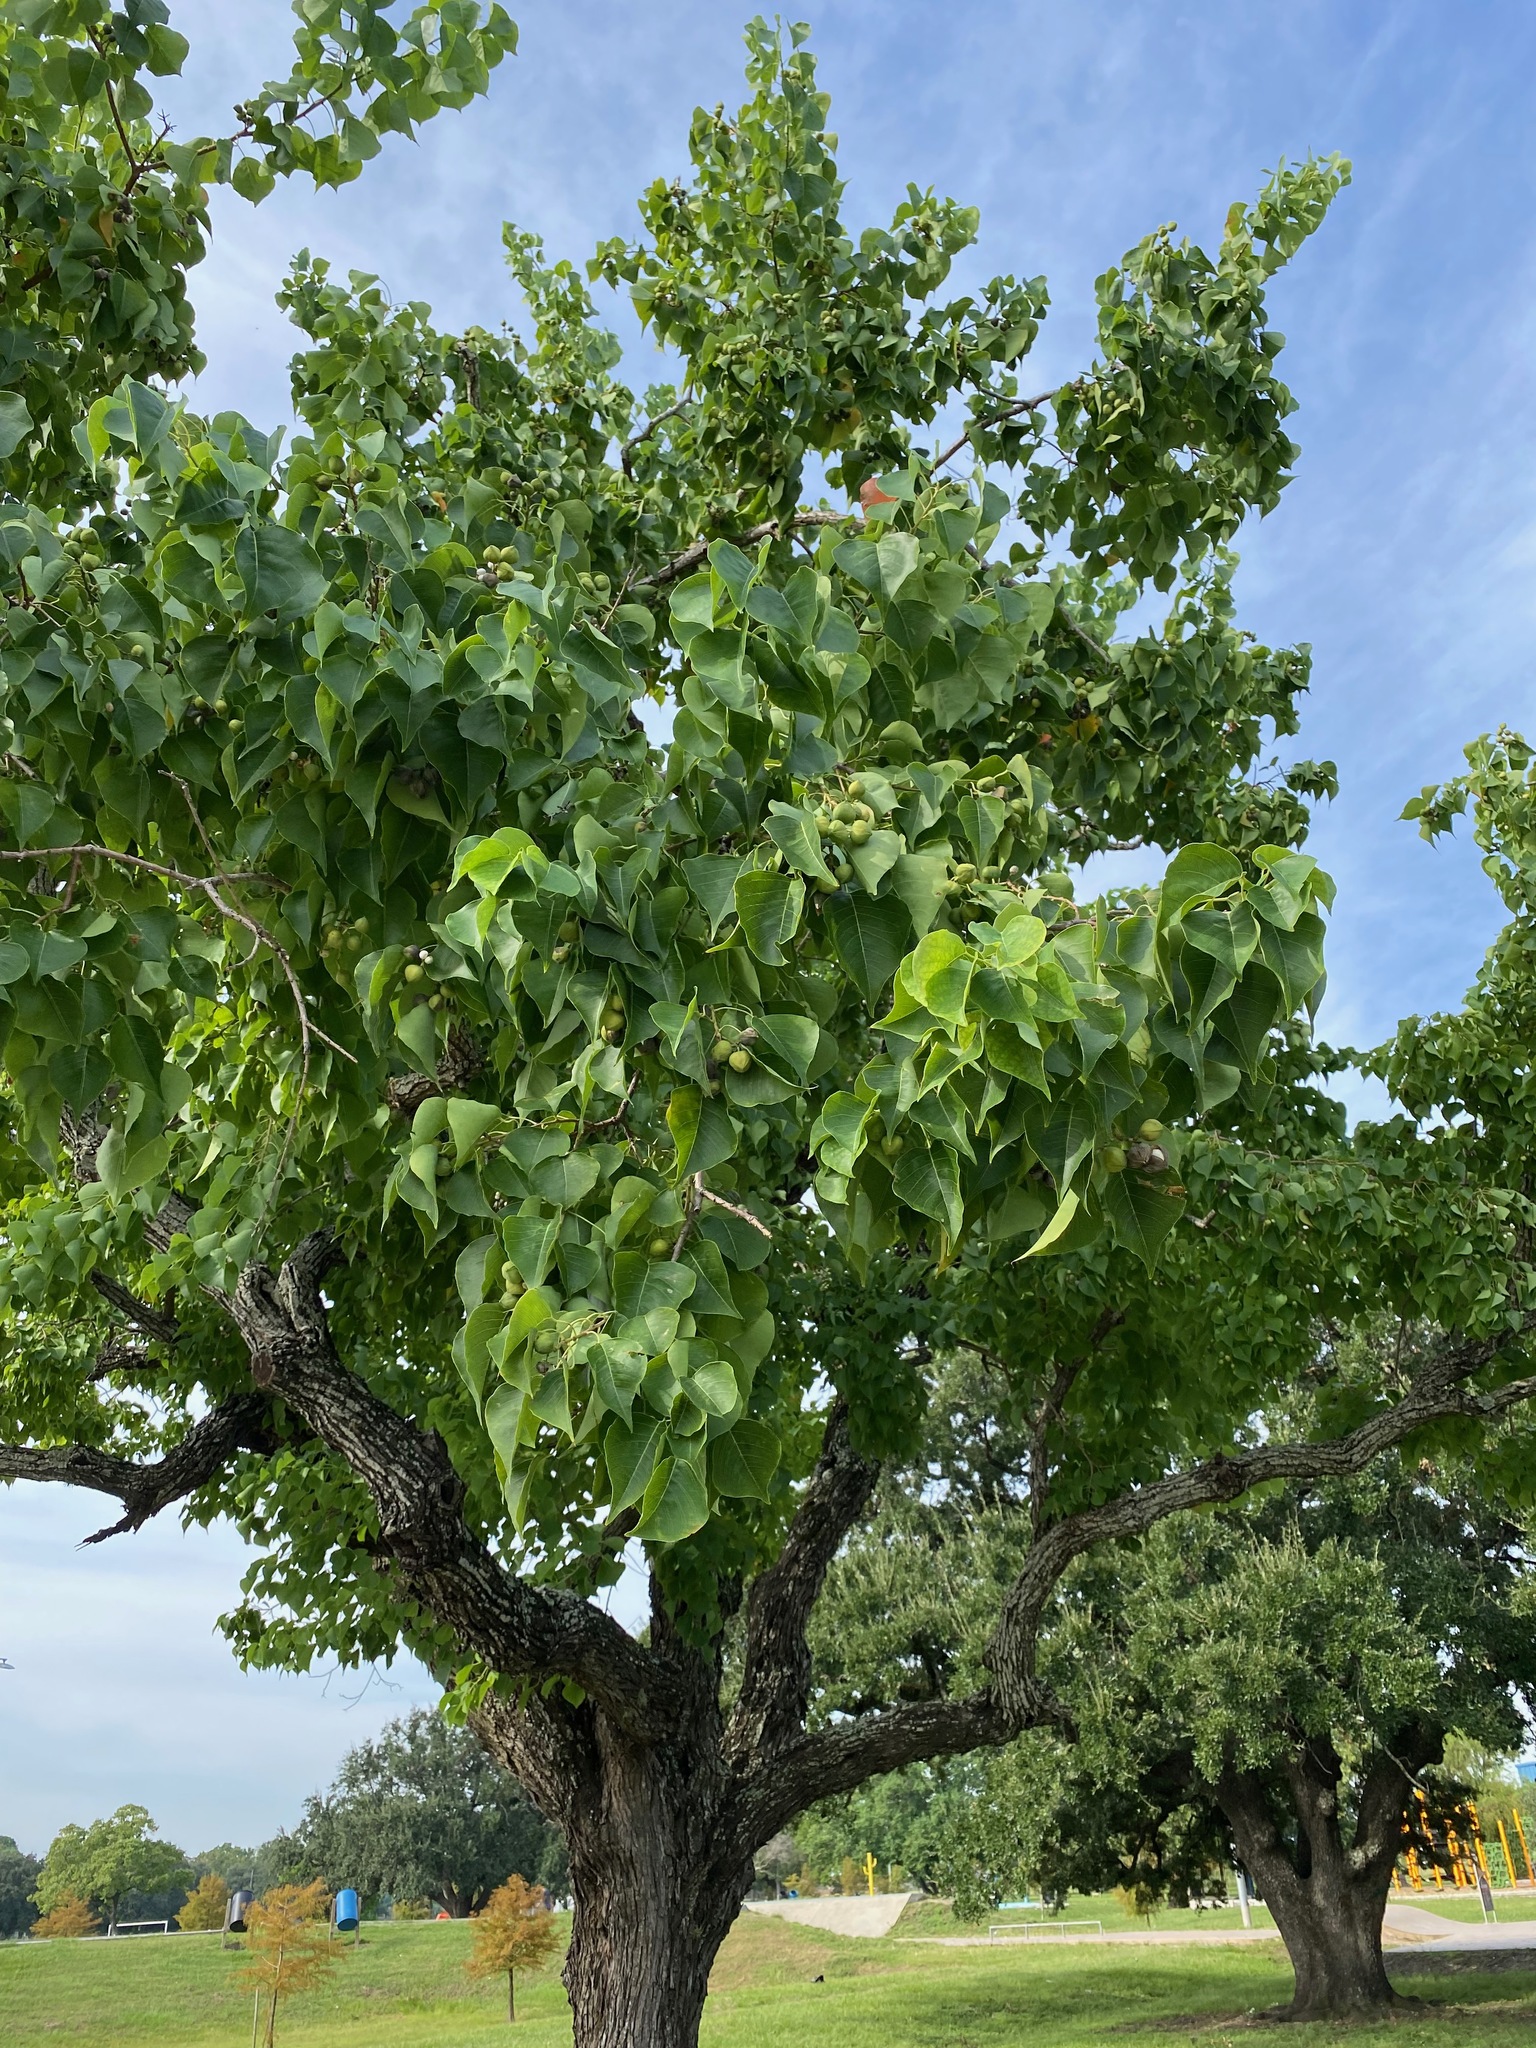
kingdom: Plantae
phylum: Tracheophyta
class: Magnoliopsida
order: Malpighiales
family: Euphorbiaceae
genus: Triadica
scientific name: Triadica sebifera
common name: Chinese tallow
